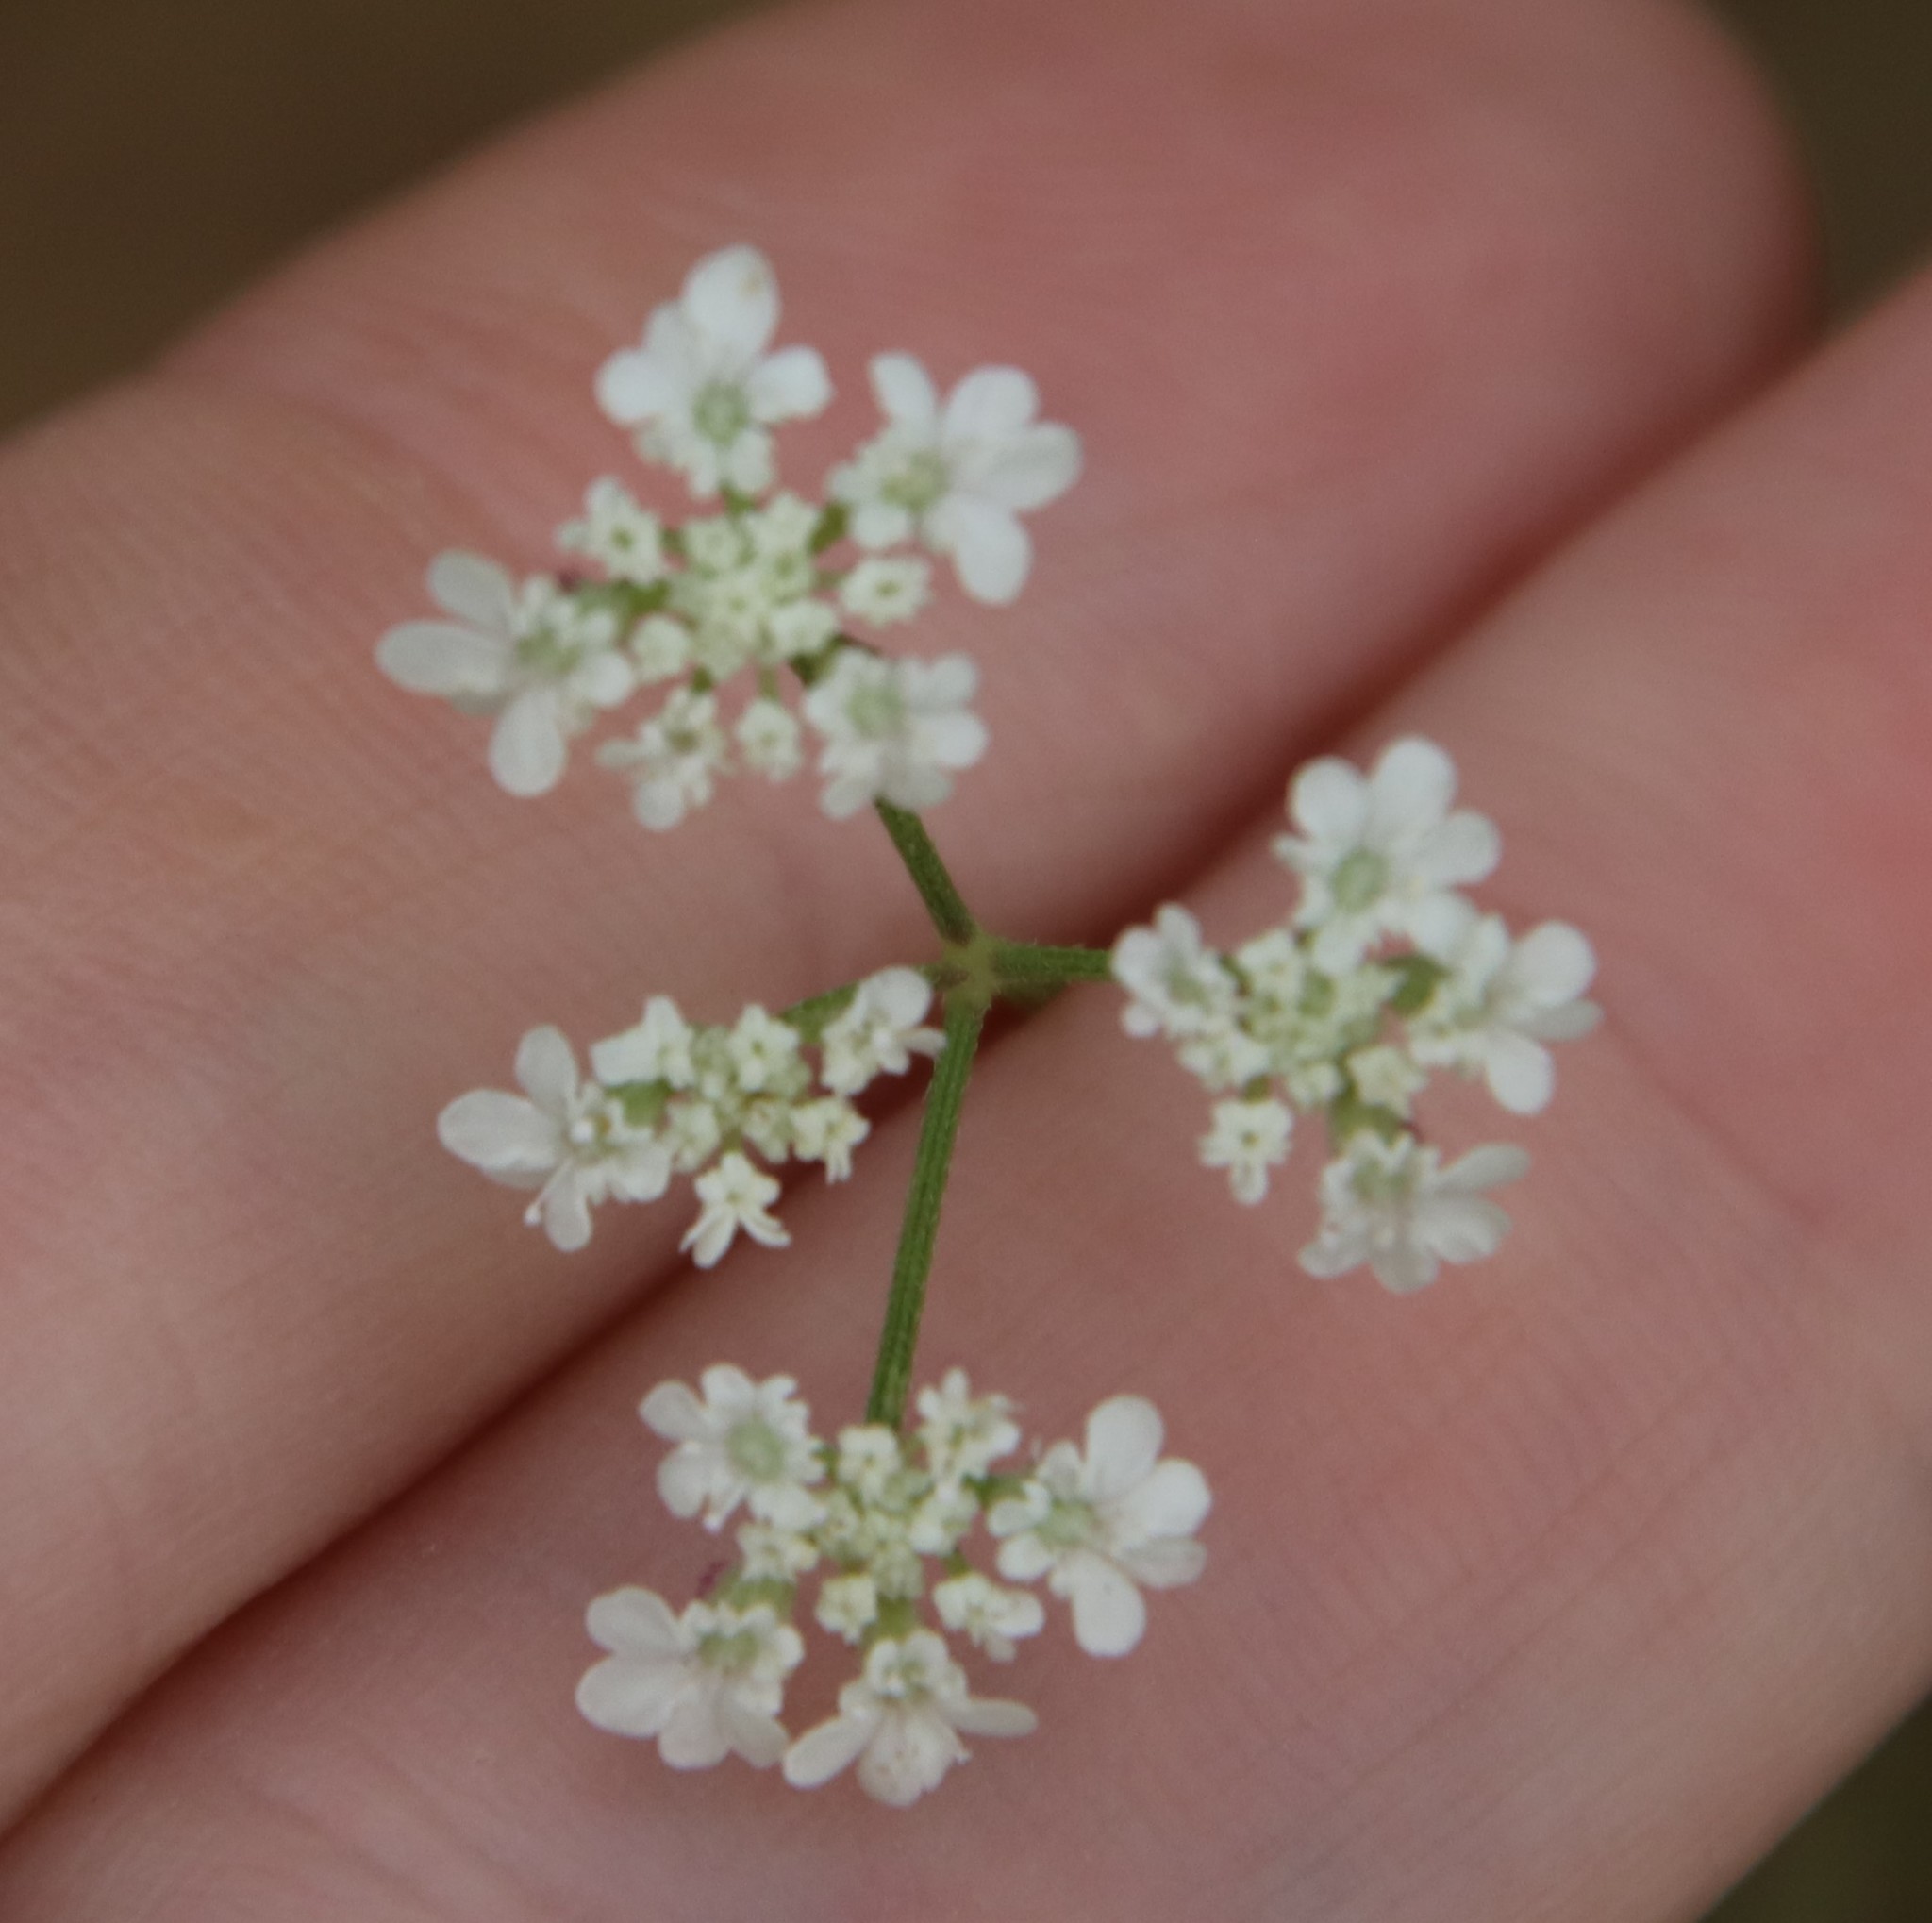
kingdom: Plantae
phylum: Tracheophyta
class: Magnoliopsida
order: Apiales
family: Apiaceae
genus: Torilis
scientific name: Torilis arvensis
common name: Spreading hedge-parsley
